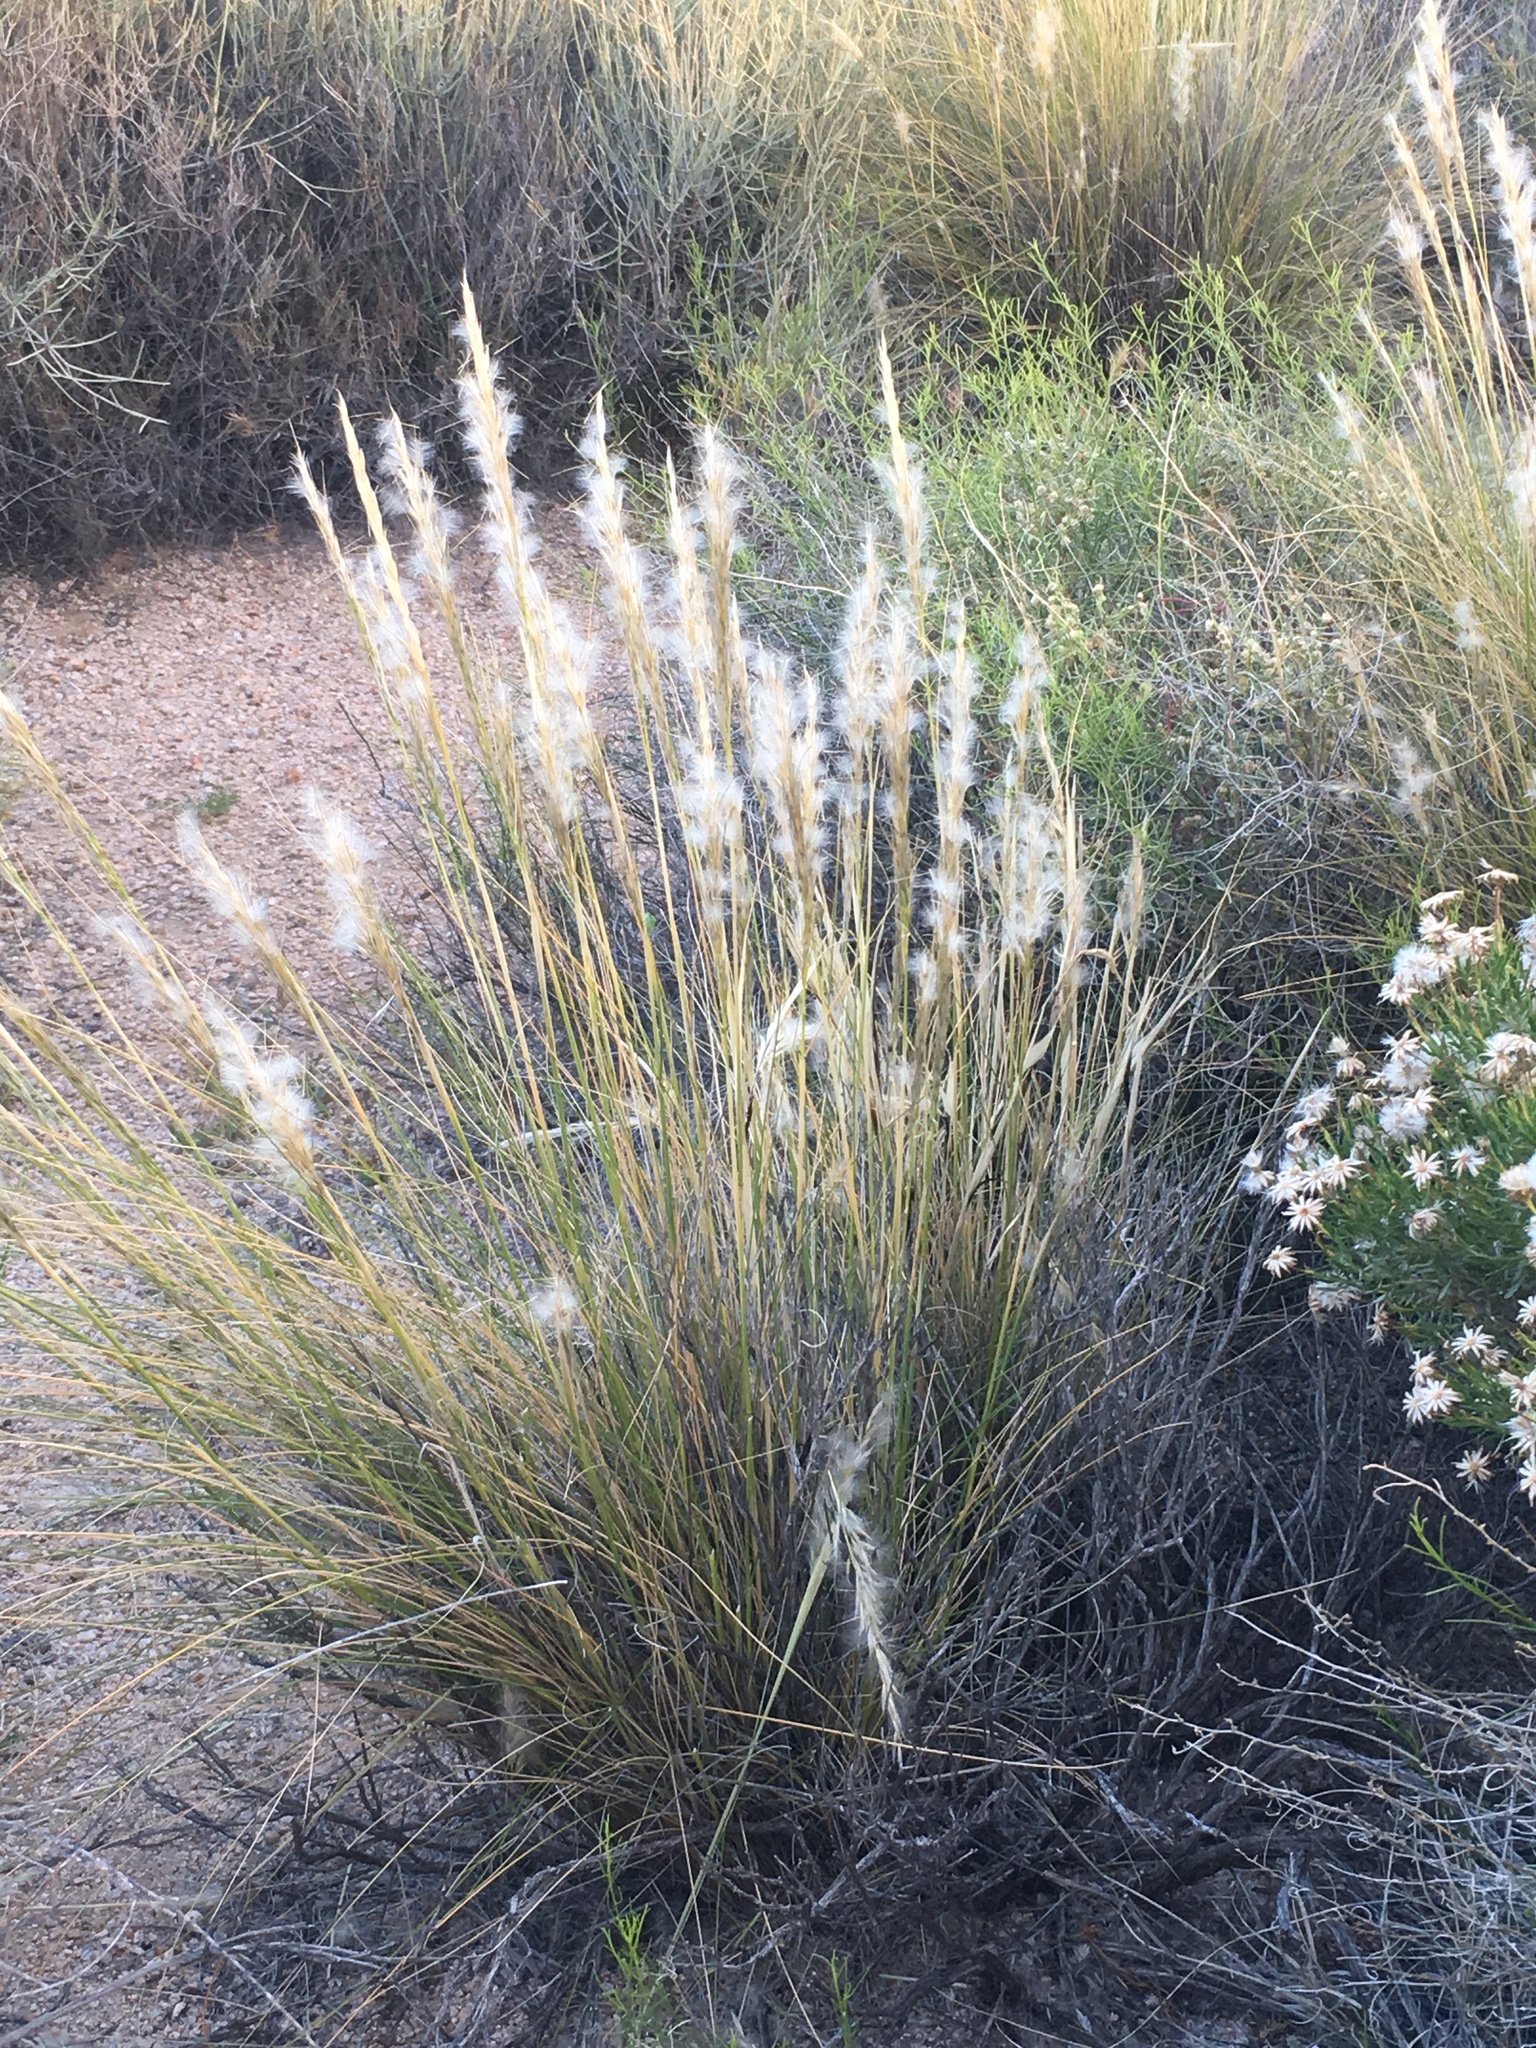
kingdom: Plantae
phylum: Tracheophyta
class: Liliopsida
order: Poales
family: Poaceae
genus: Pappostipa
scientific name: Pappostipa speciosa
